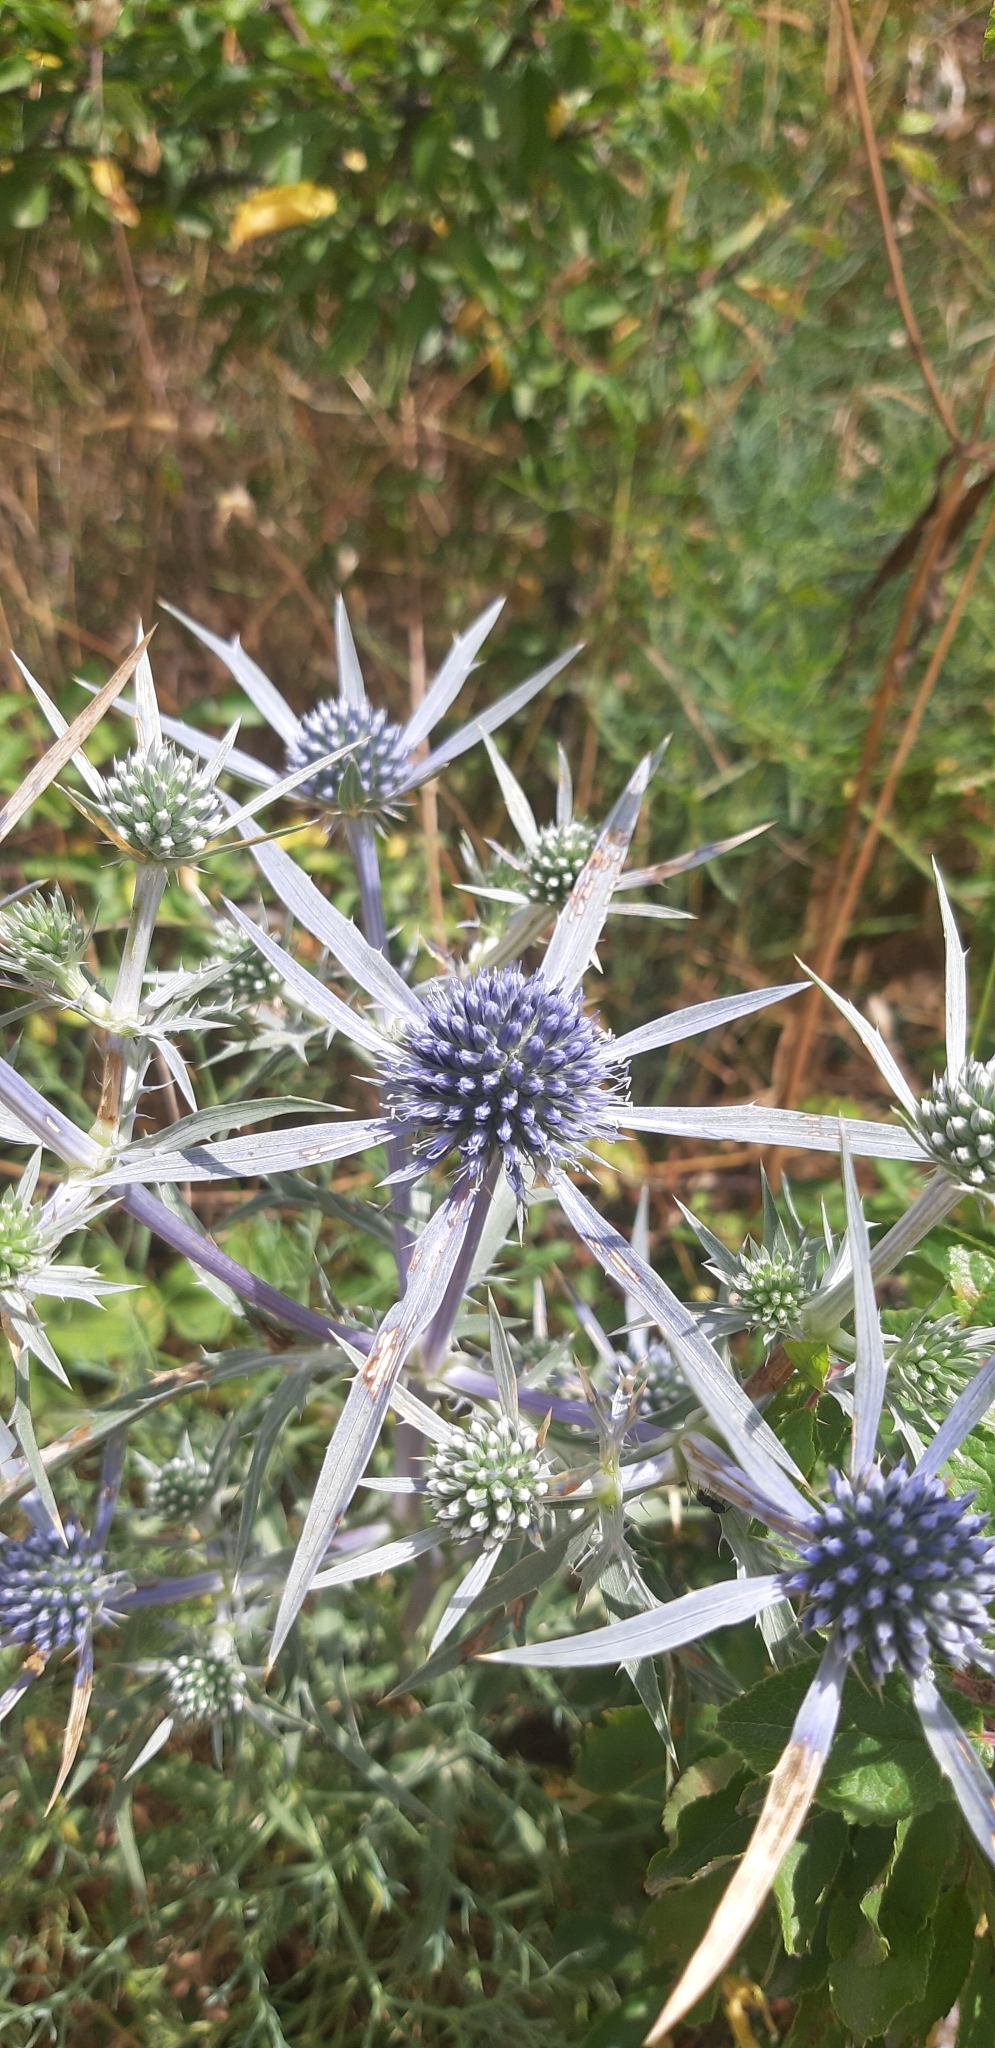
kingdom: Plantae
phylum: Tracheophyta
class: Magnoliopsida
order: Apiales
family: Apiaceae
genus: Eryngium
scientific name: Eryngium amethystinum
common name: Amethyst eryngo
